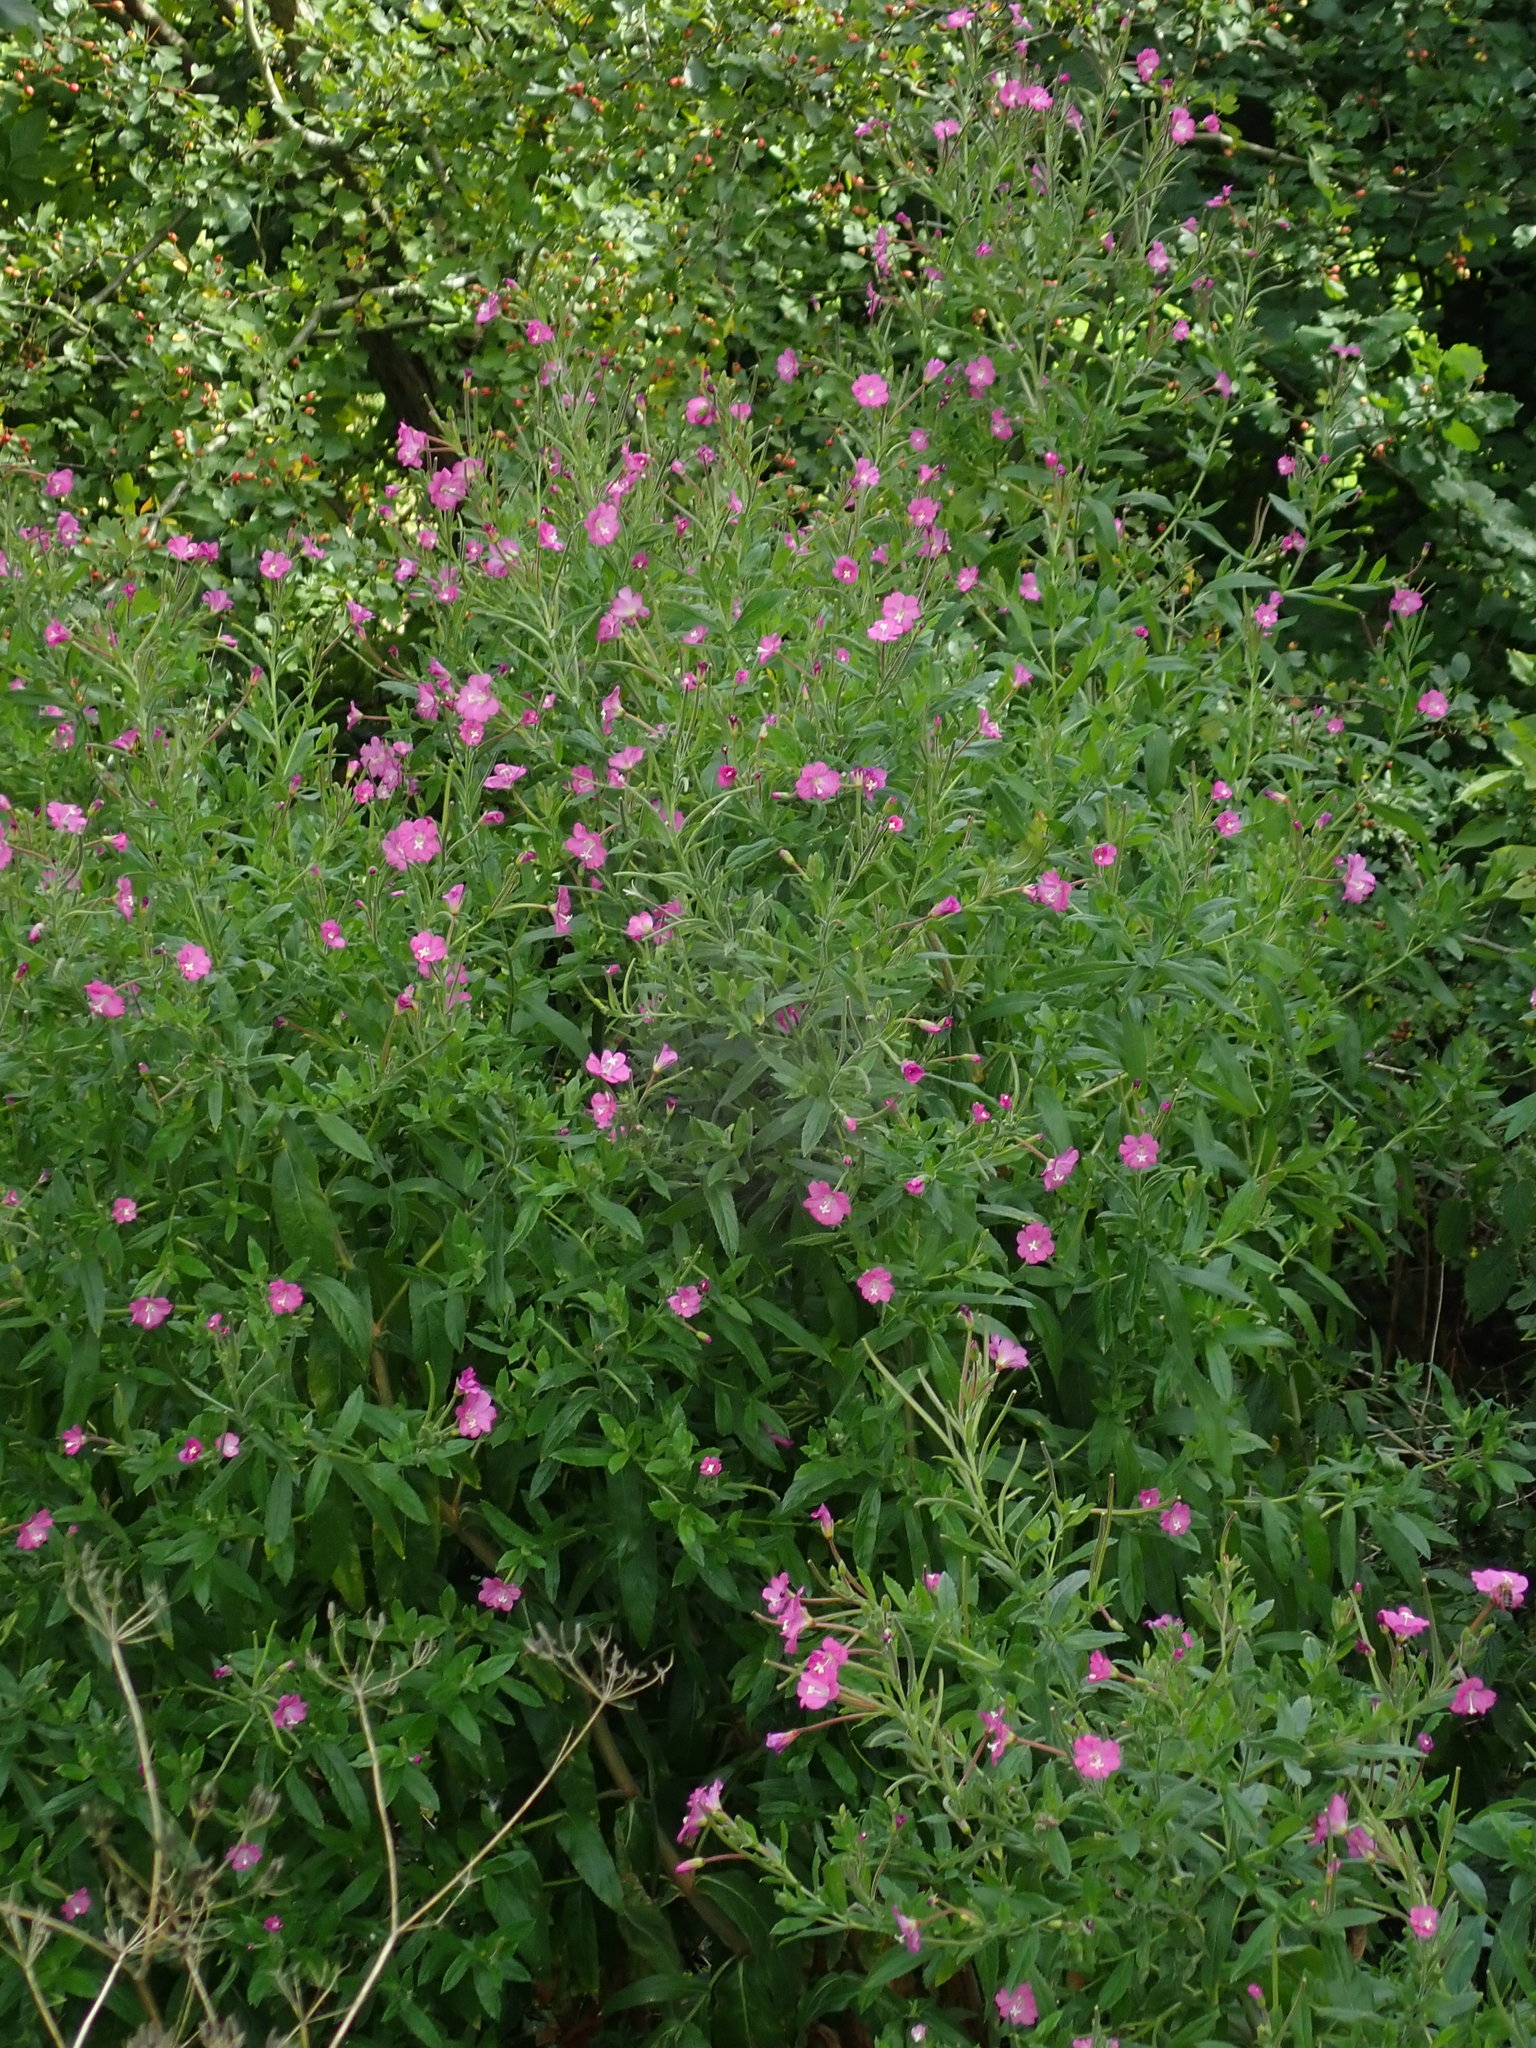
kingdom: Plantae
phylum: Tracheophyta
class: Magnoliopsida
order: Myrtales
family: Onagraceae
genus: Epilobium
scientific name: Epilobium hirsutum
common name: Great willowherb
